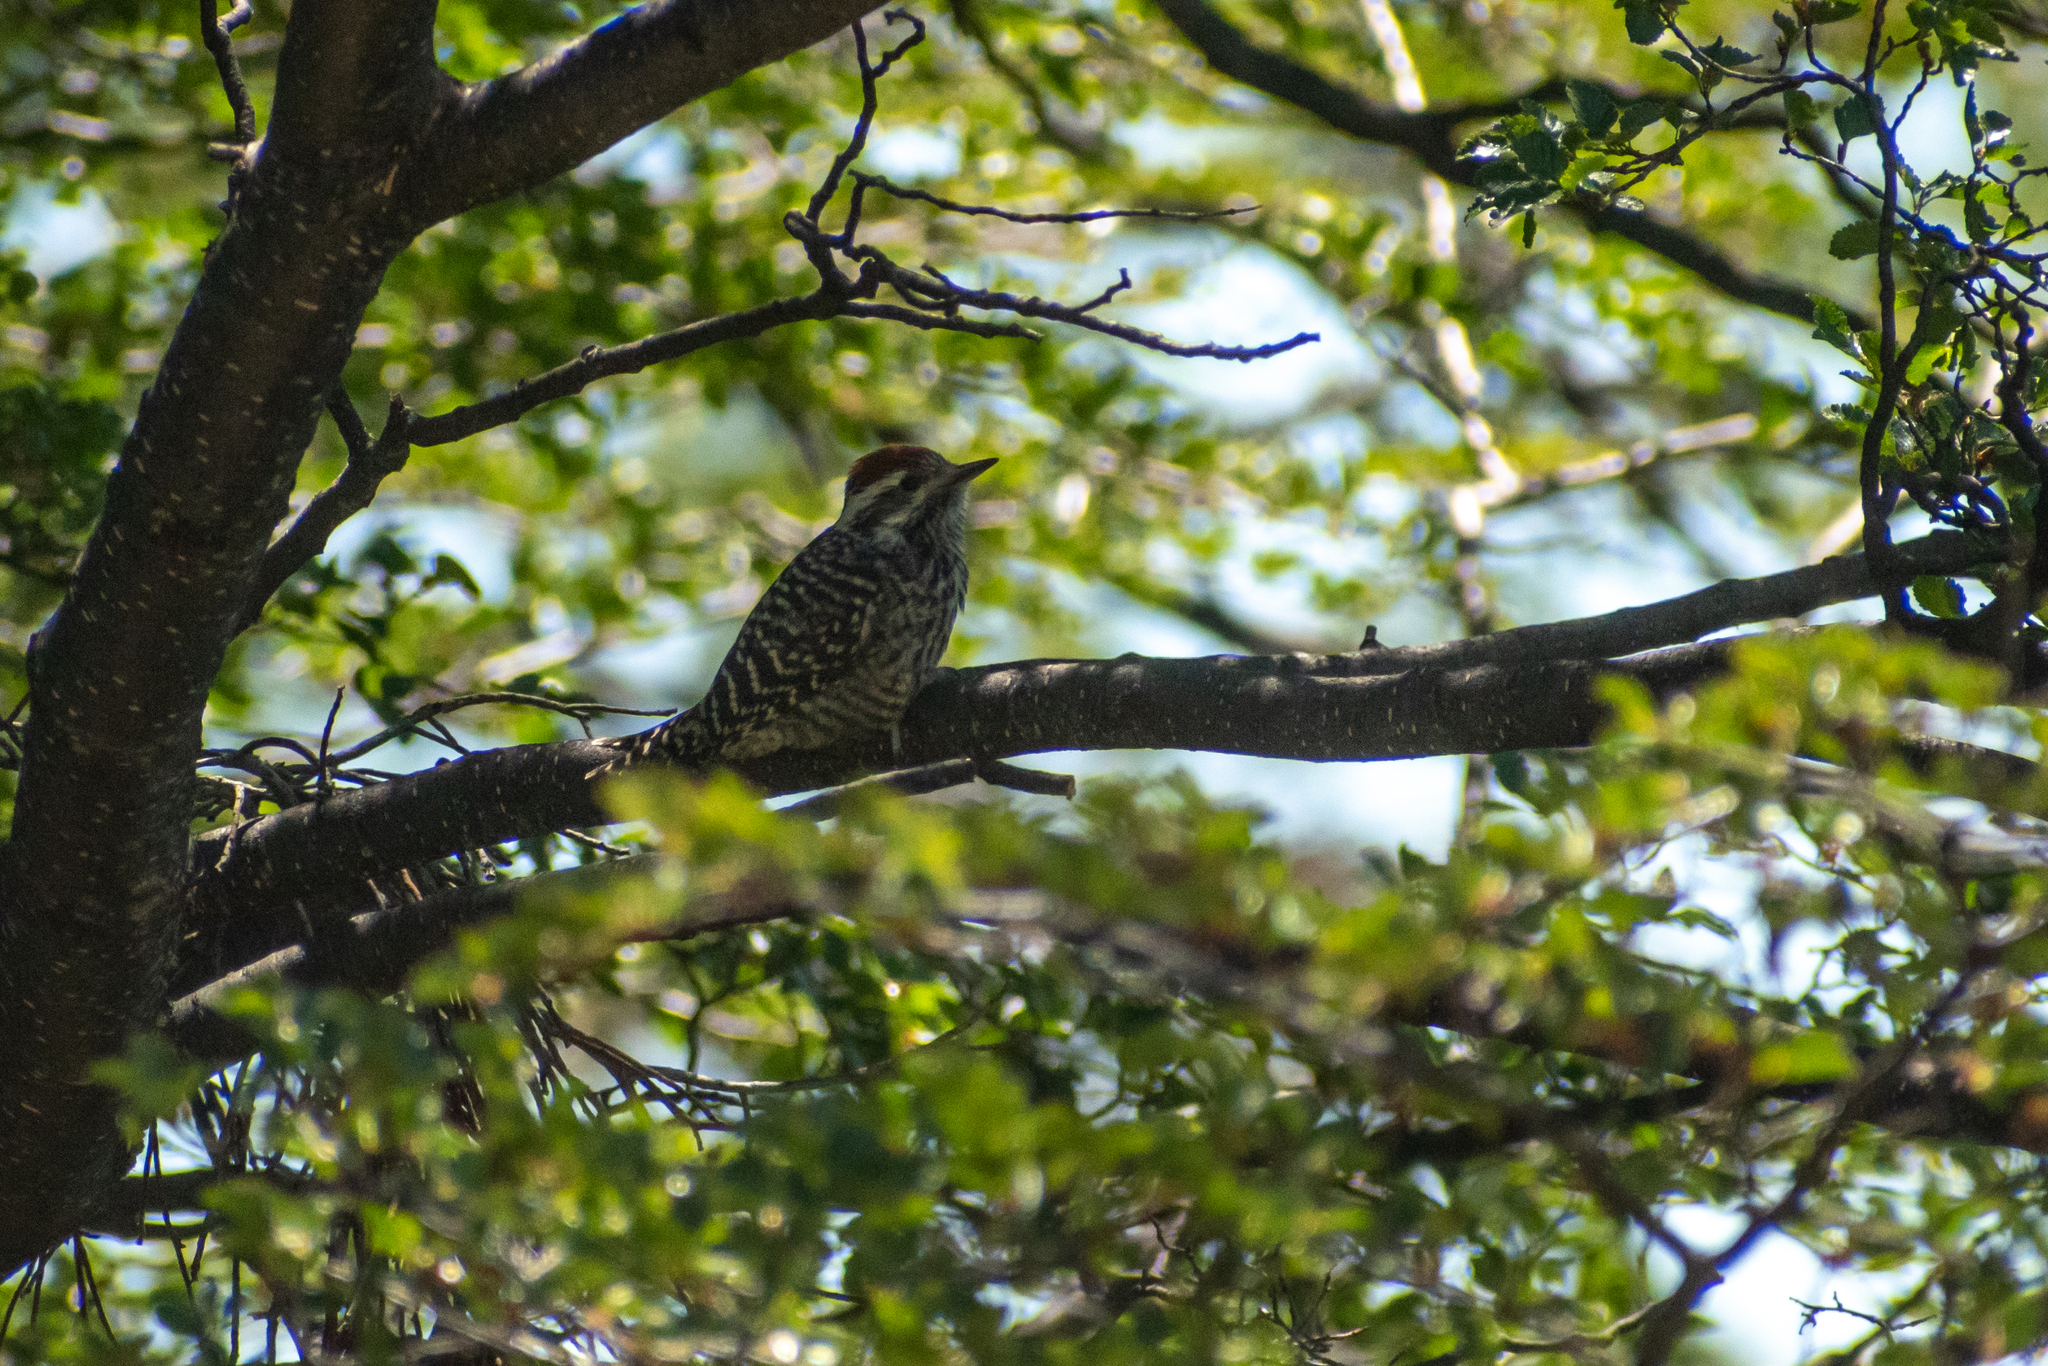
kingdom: Animalia
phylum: Chordata
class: Aves
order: Piciformes
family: Picidae
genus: Veniliornis
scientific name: Veniliornis lignarius
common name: Striped woodpecker
